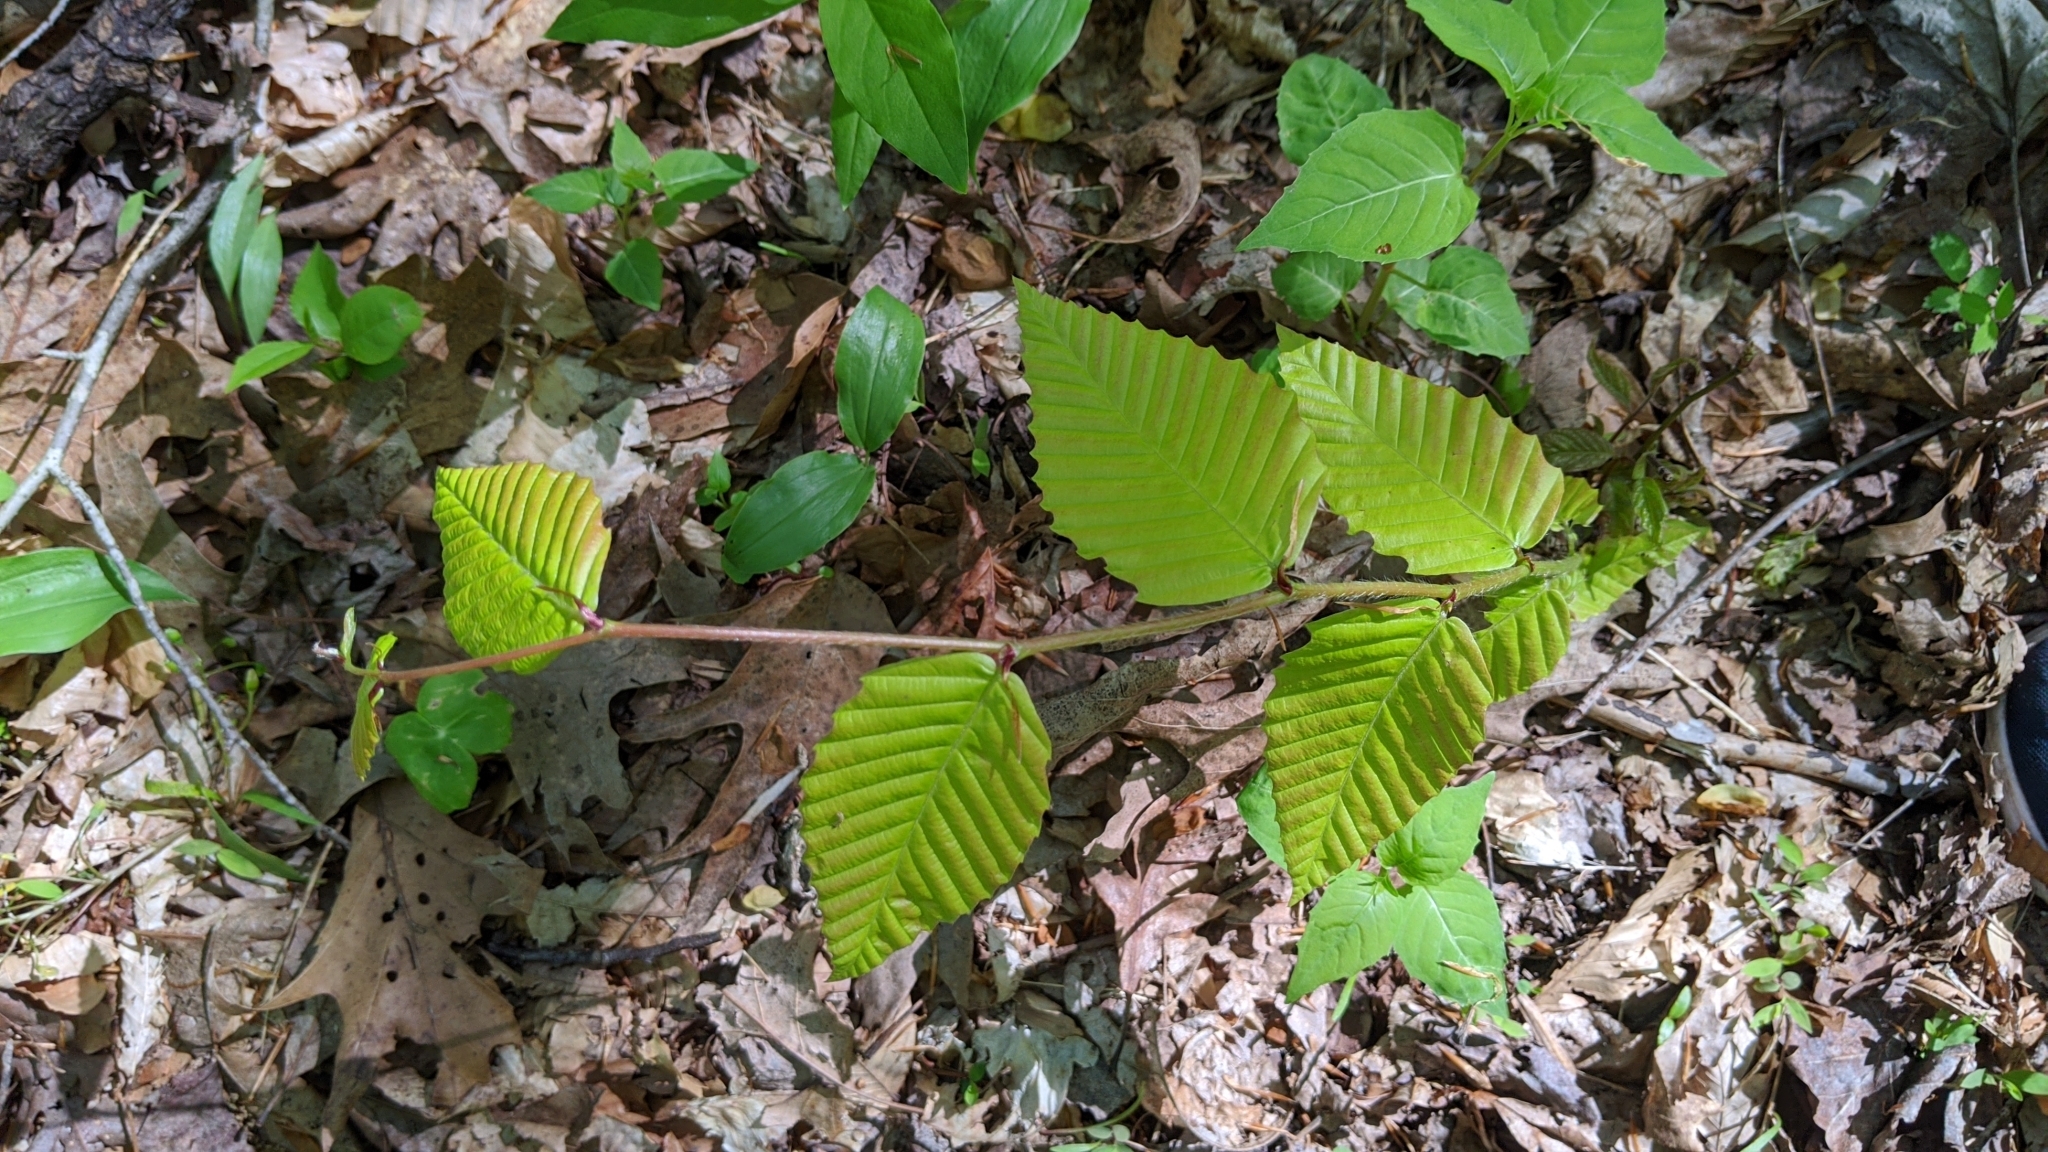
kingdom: Plantae
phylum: Tracheophyta
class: Magnoliopsida
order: Fagales
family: Fagaceae
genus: Fagus
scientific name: Fagus grandifolia
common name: American beech
